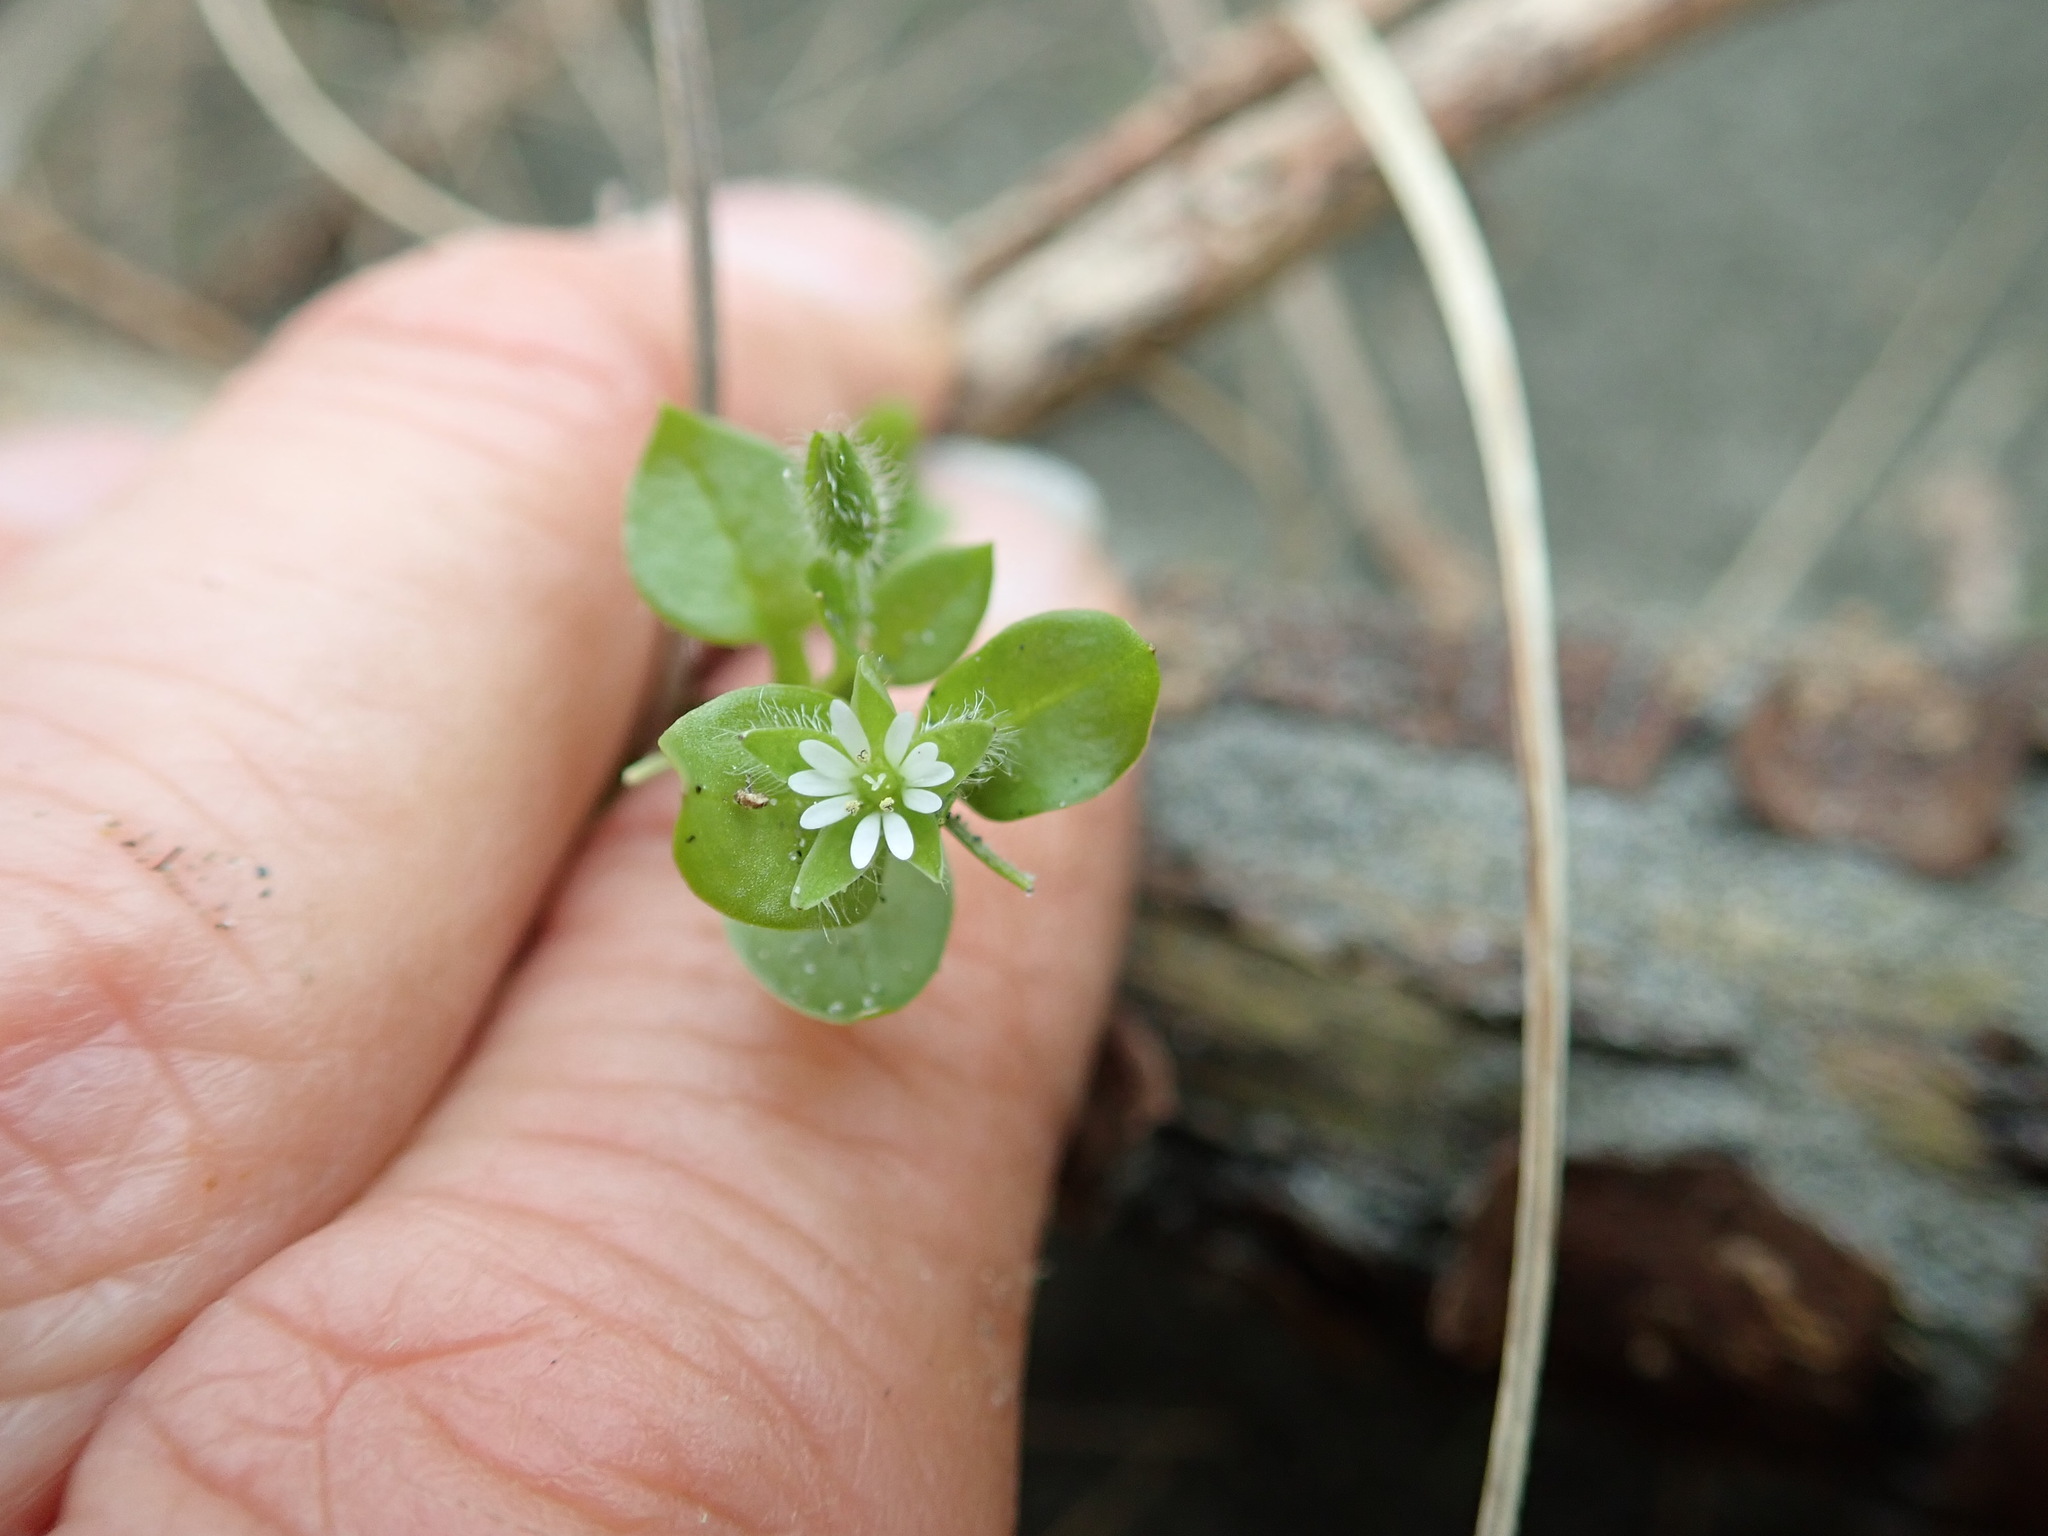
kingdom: Plantae
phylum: Tracheophyta
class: Magnoliopsida
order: Caryophyllales
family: Caryophyllaceae
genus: Stellaria
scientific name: Stellaria media
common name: Common chickweed
